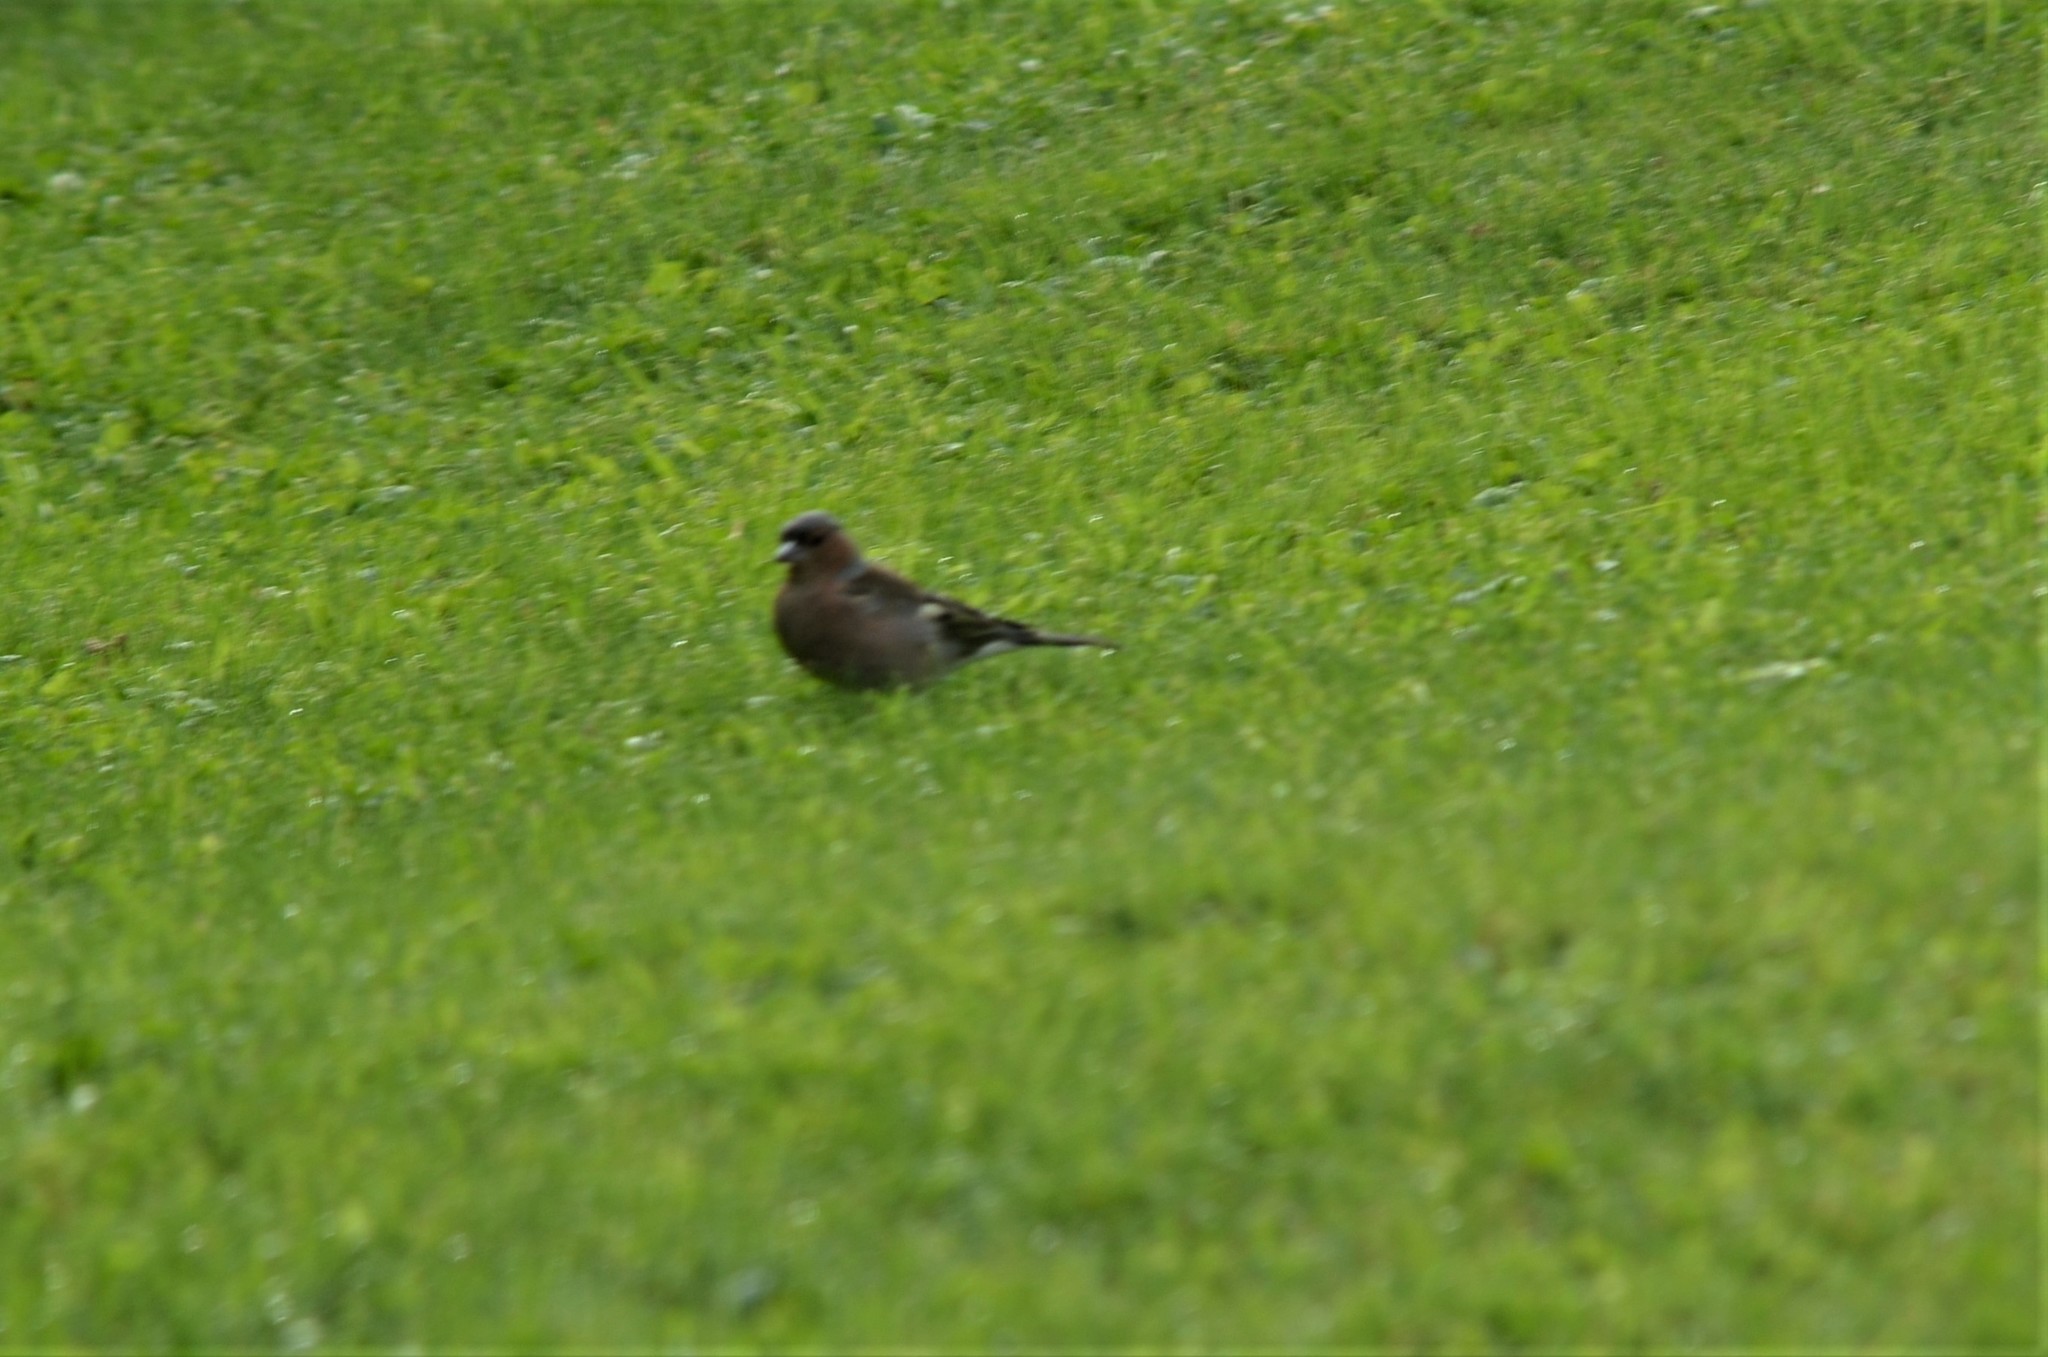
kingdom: Animalia
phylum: Chordata
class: Aves
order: Passeriformes
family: Fringillidae
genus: Fringilla
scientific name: Fringilla coelebs
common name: Common chaffinch
